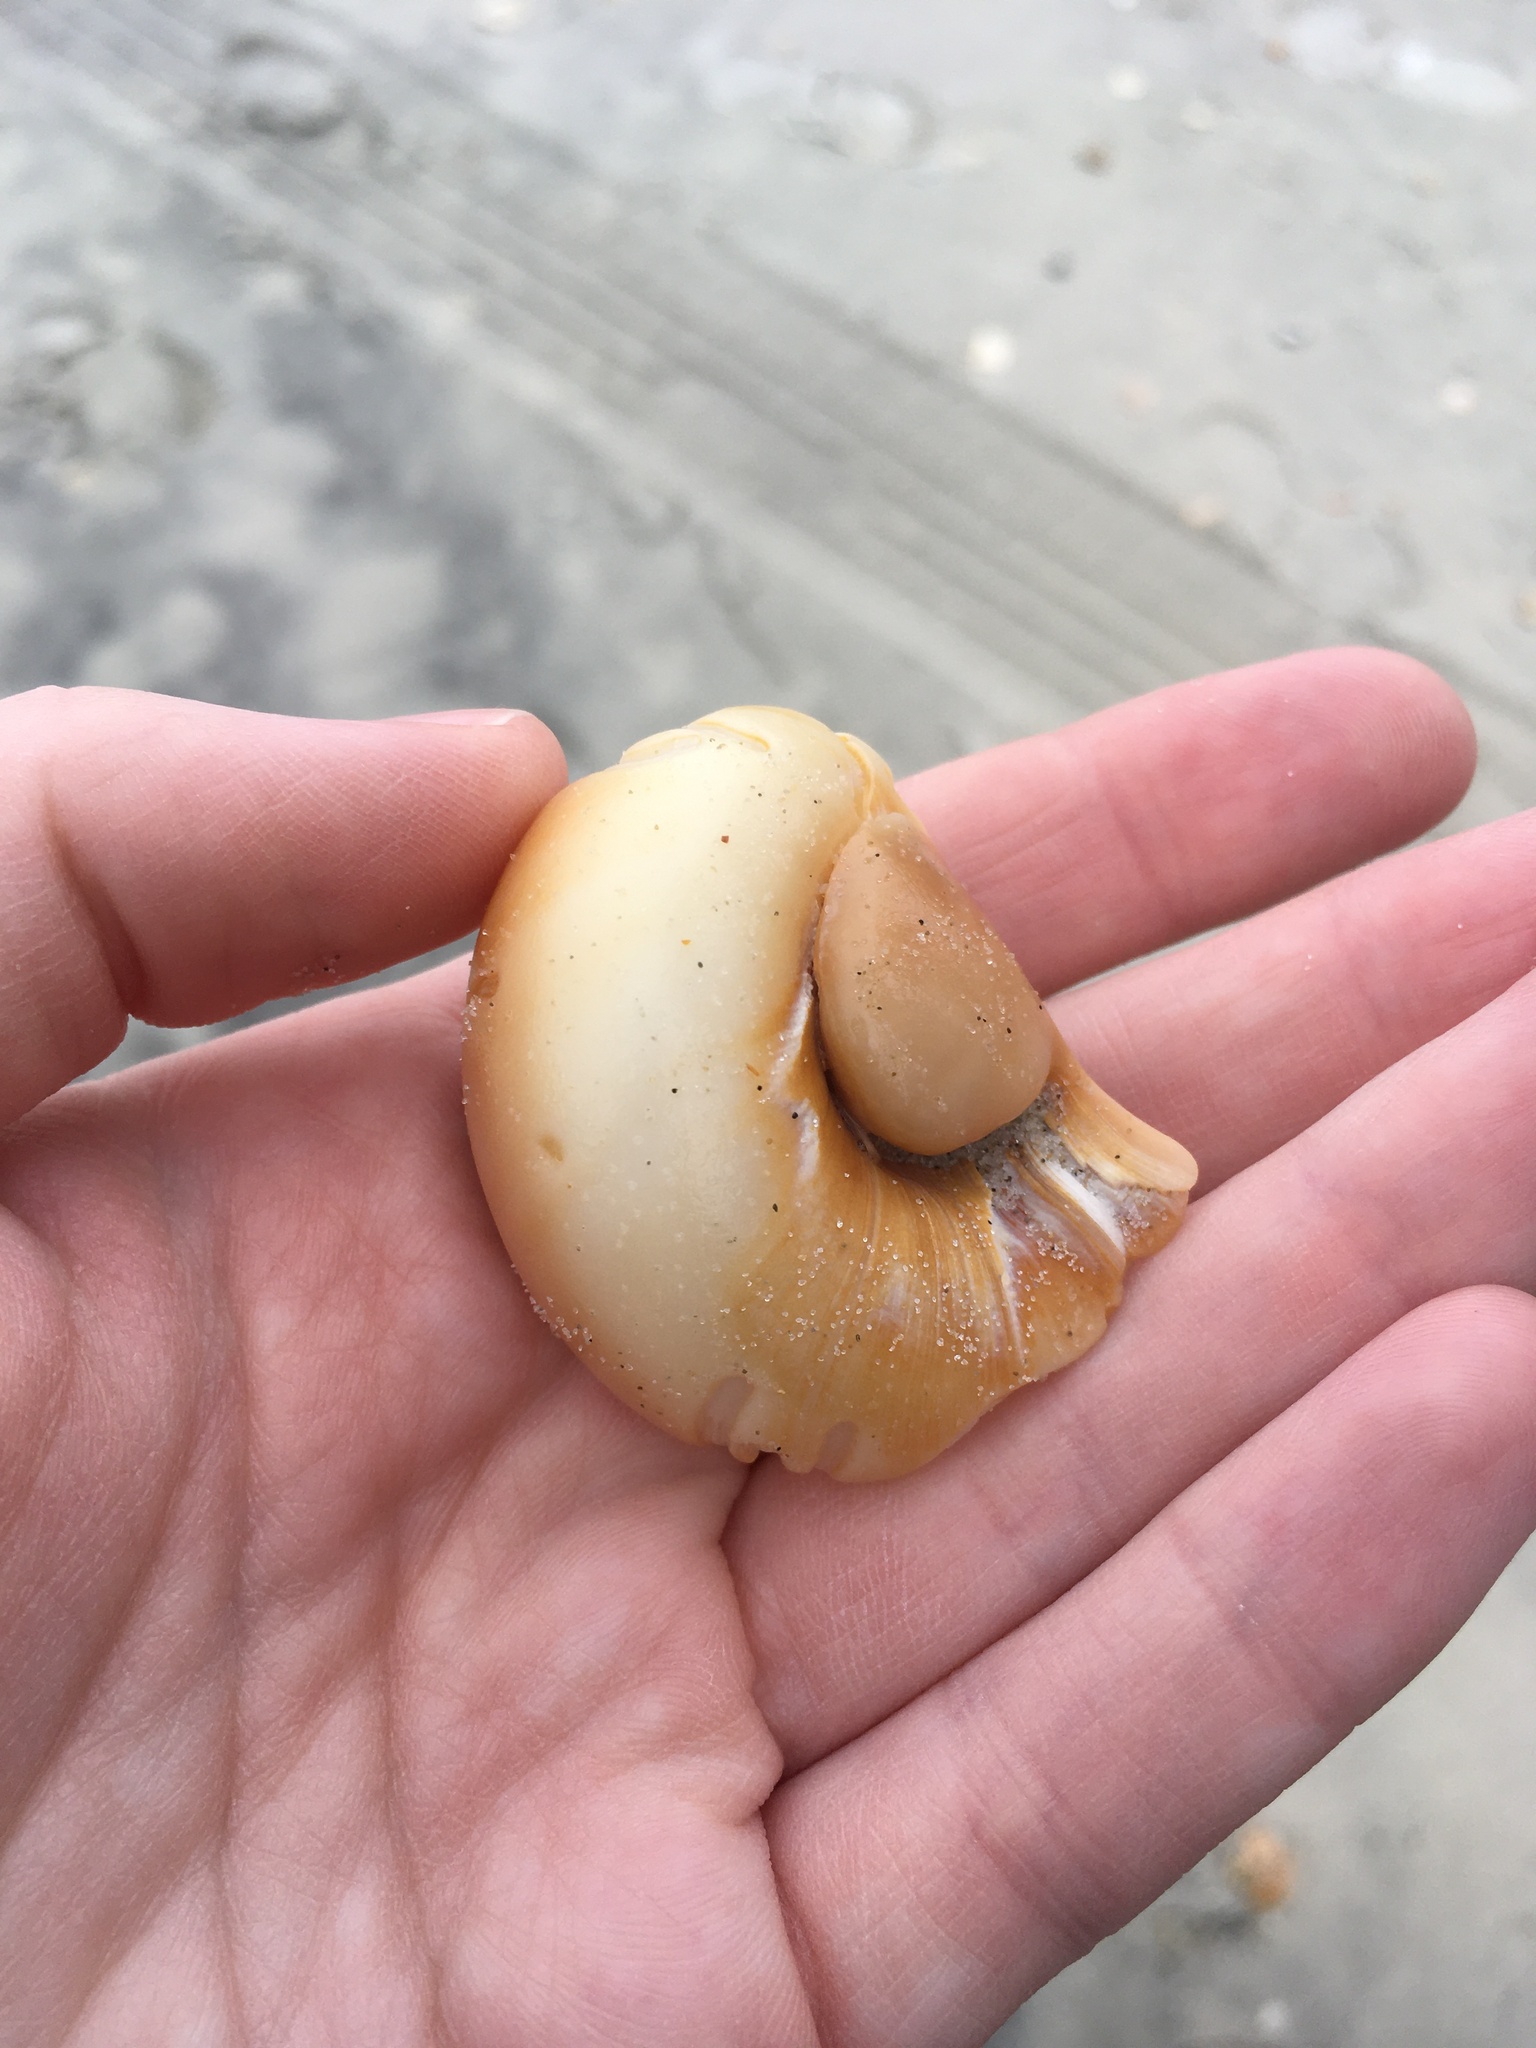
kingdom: Animalia
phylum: Mollusca
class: Gastropoda
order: Littorinimorpha
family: Naticidae
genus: Neverita
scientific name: Neverita duplicata
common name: Lobed moonsnail
